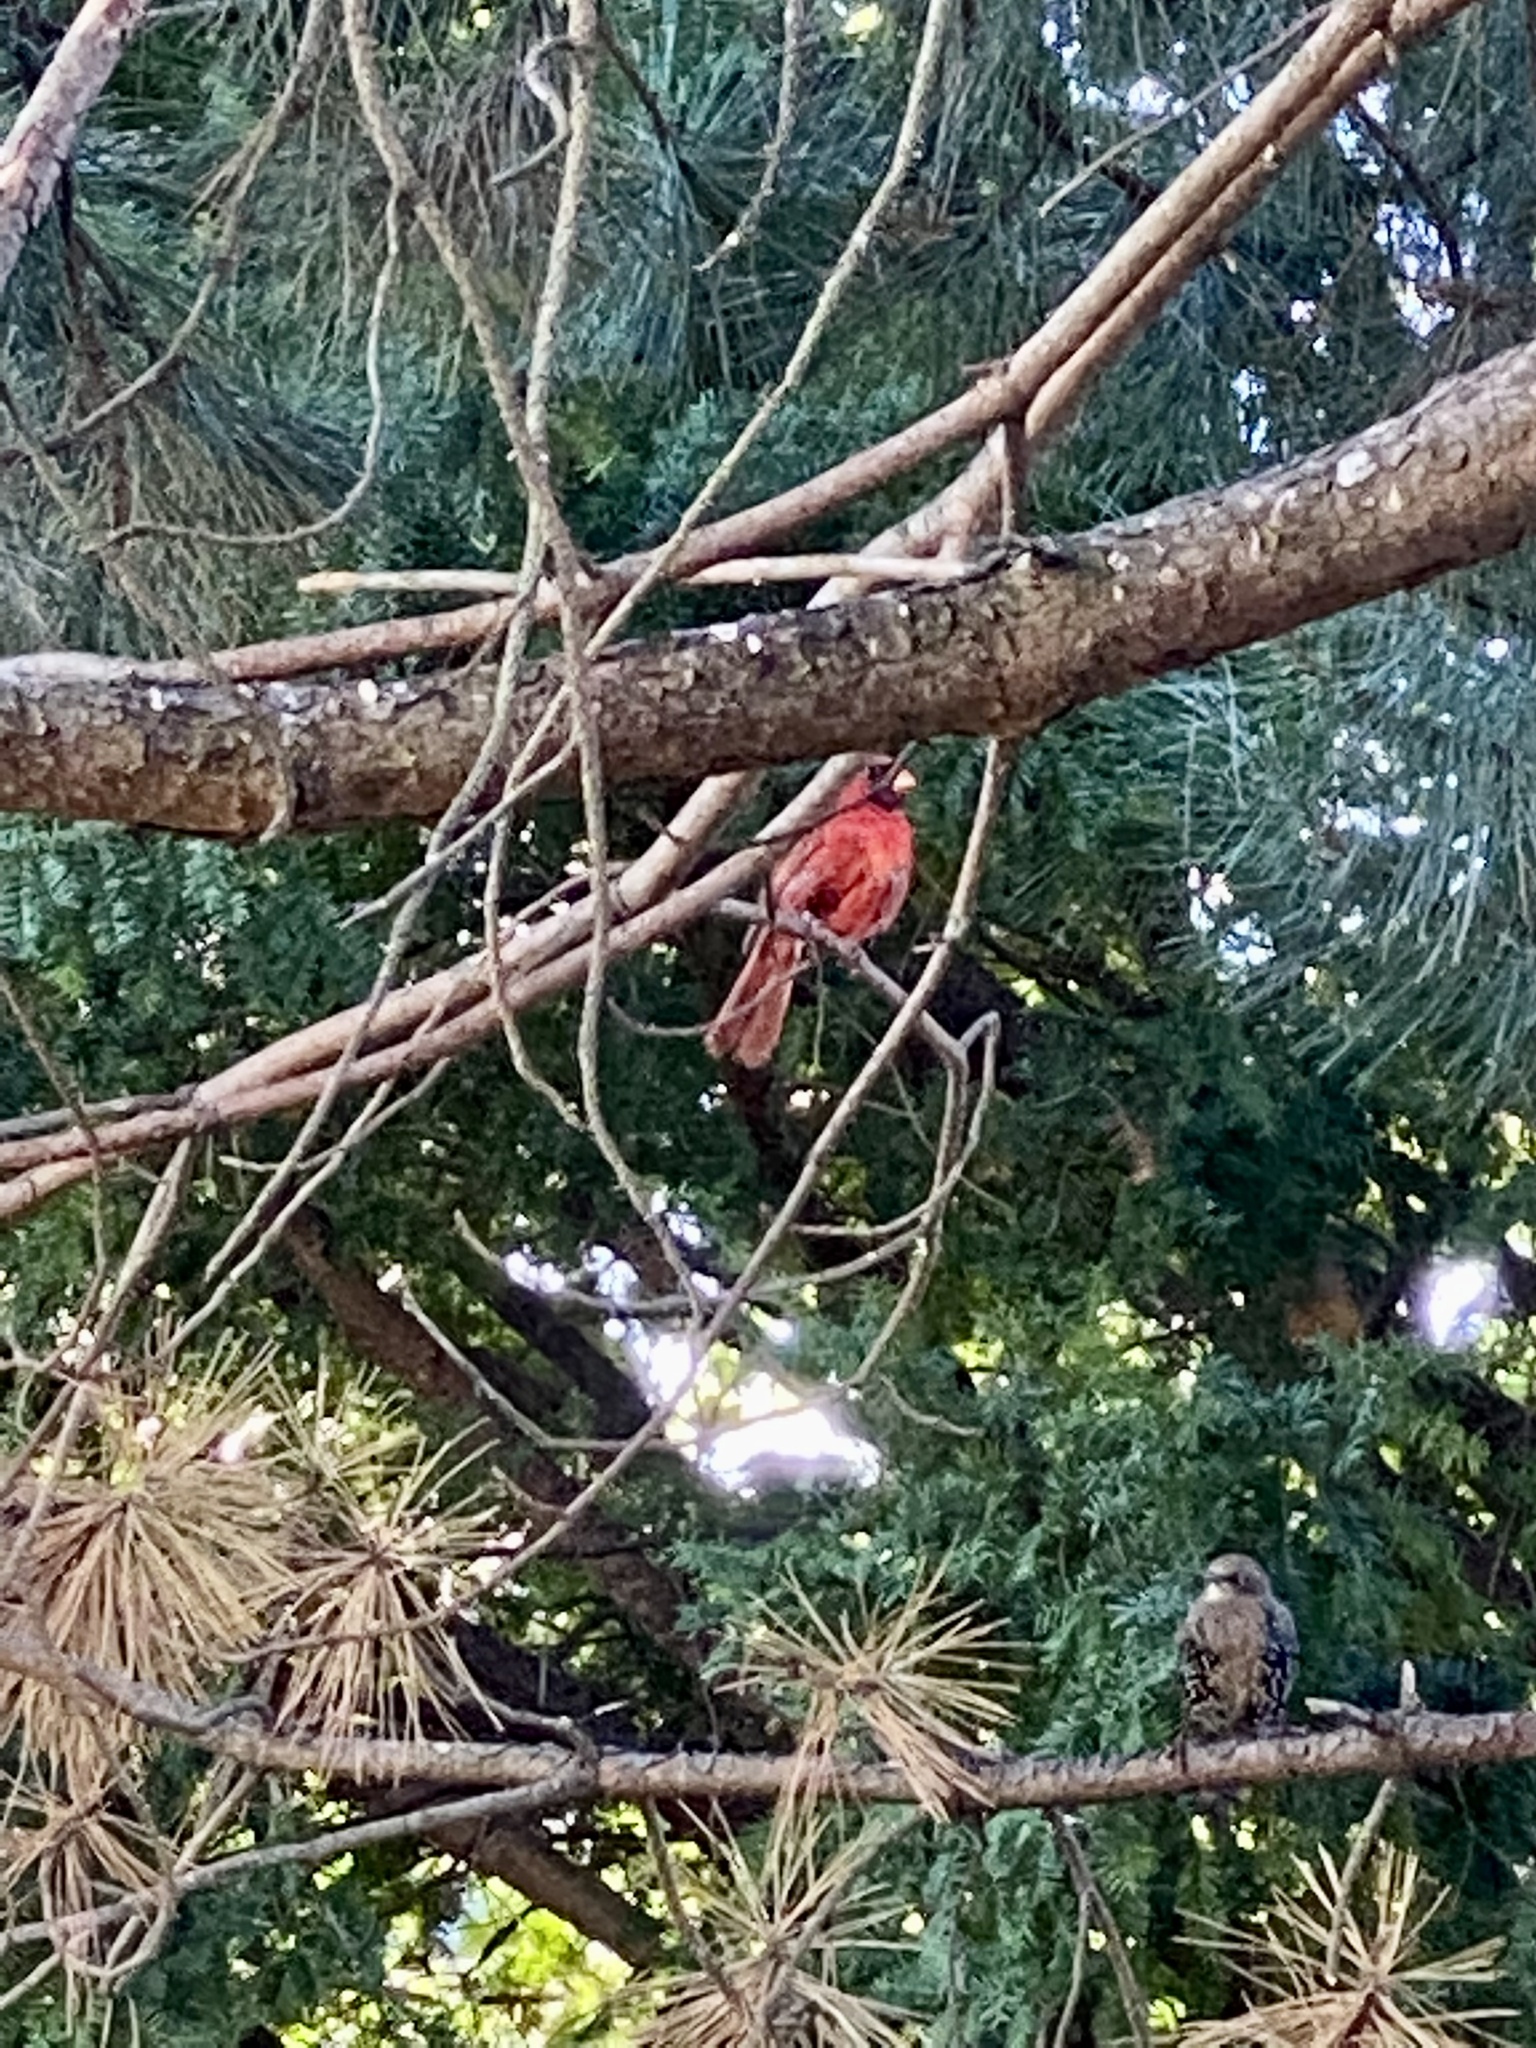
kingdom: Animalia
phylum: Chordata
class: Aves
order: Passeriformes
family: Cardinalidae
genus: Cardinalis
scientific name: Cardinalis cardinalis
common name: Northern cardinal
